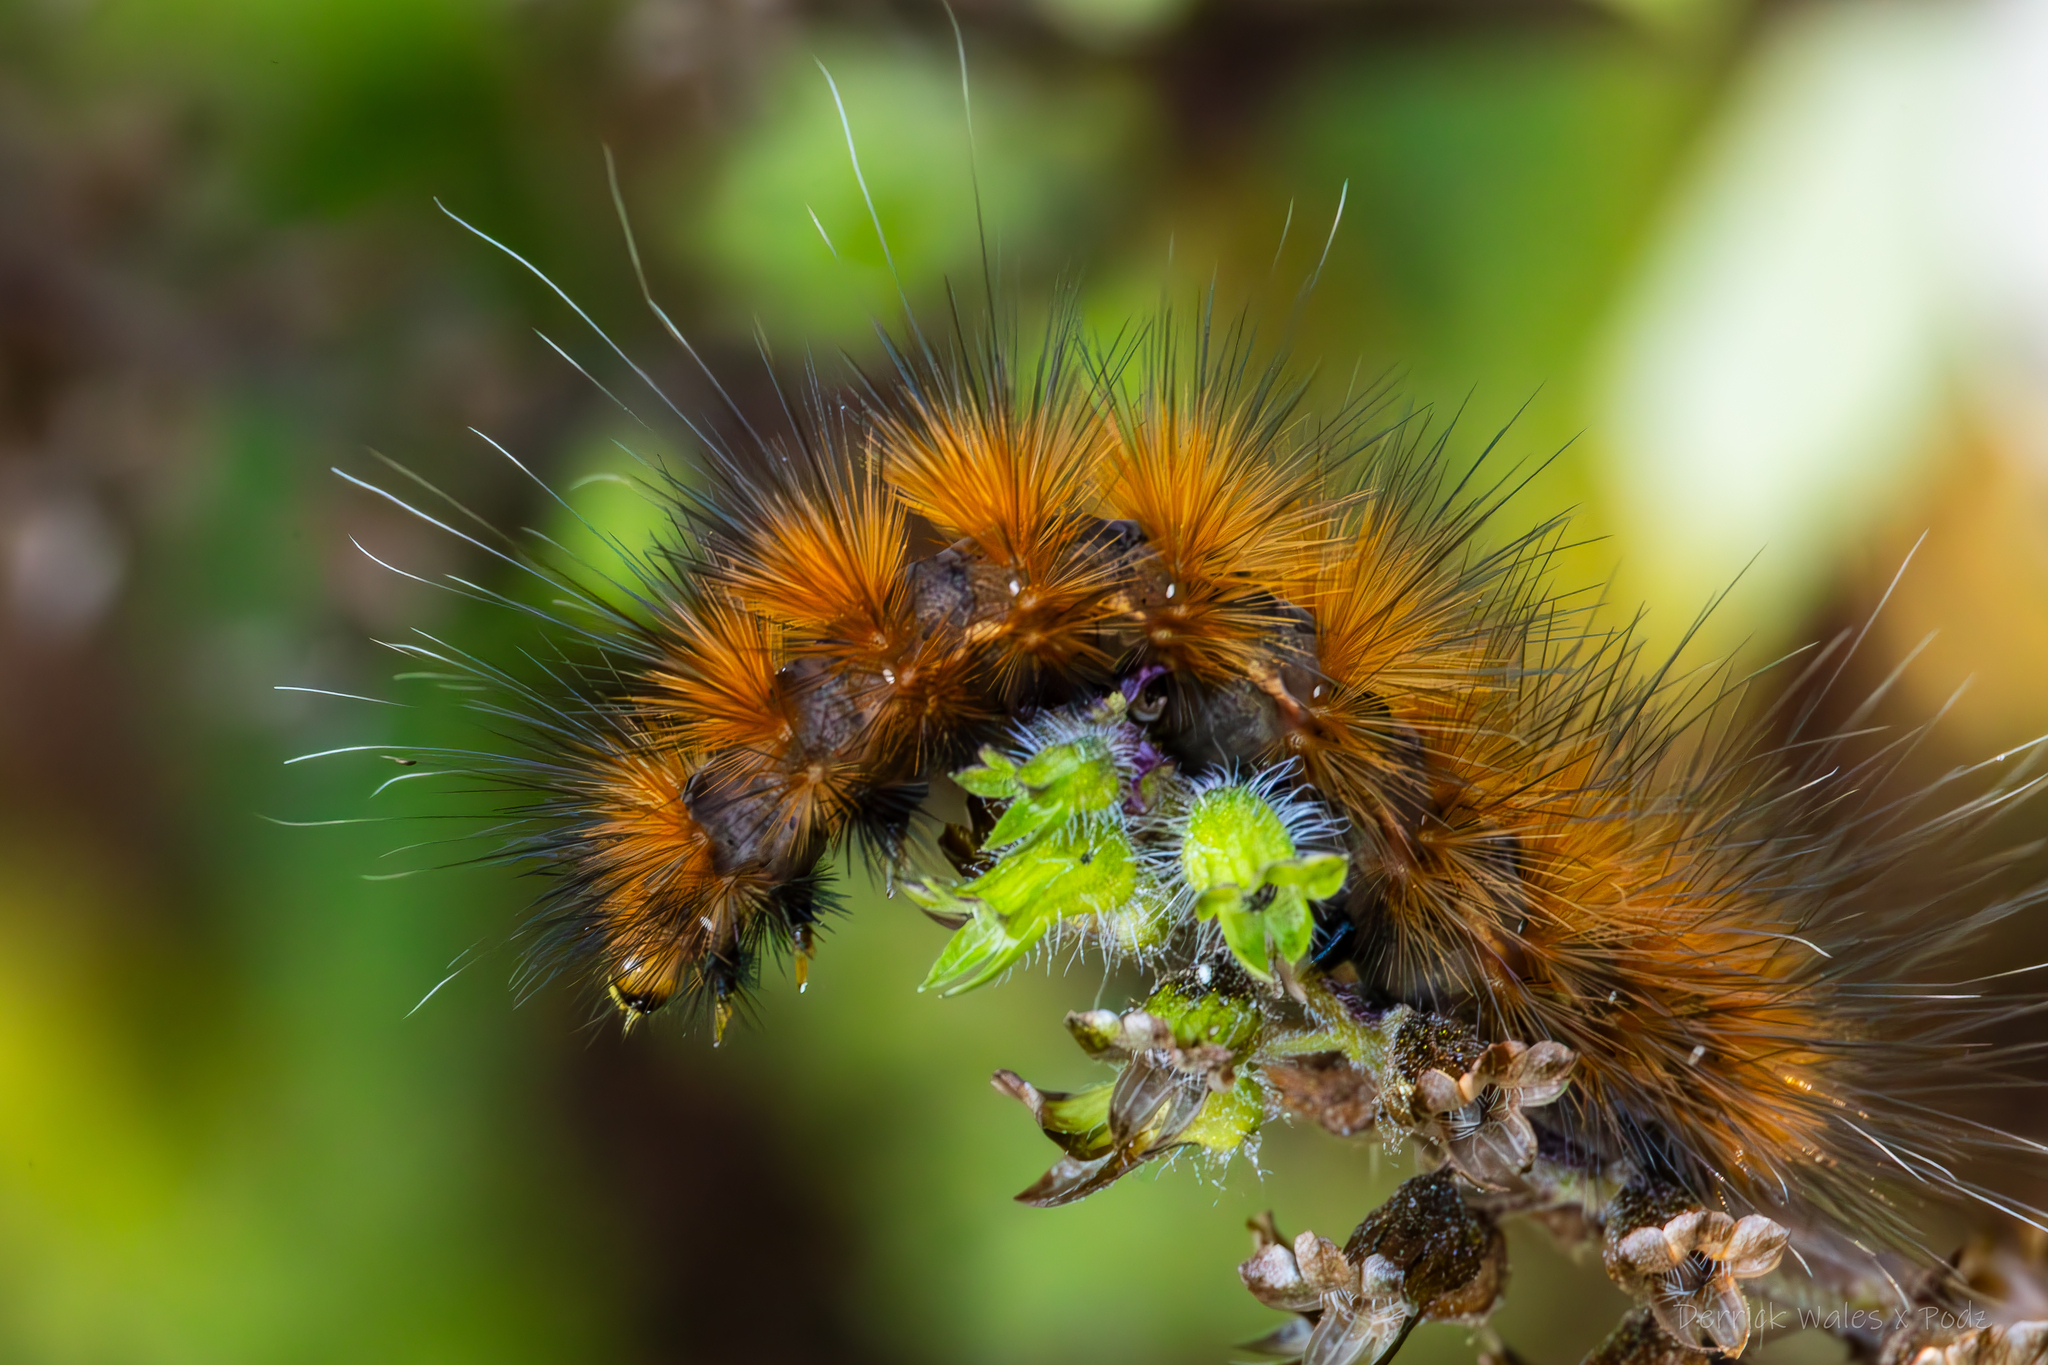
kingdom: Animalia
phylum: Arthropoda
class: Insecta
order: Lepidoptera
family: Erebidae
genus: Spilosoma
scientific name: Spilosoma virginica
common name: Virginia tiger moth
